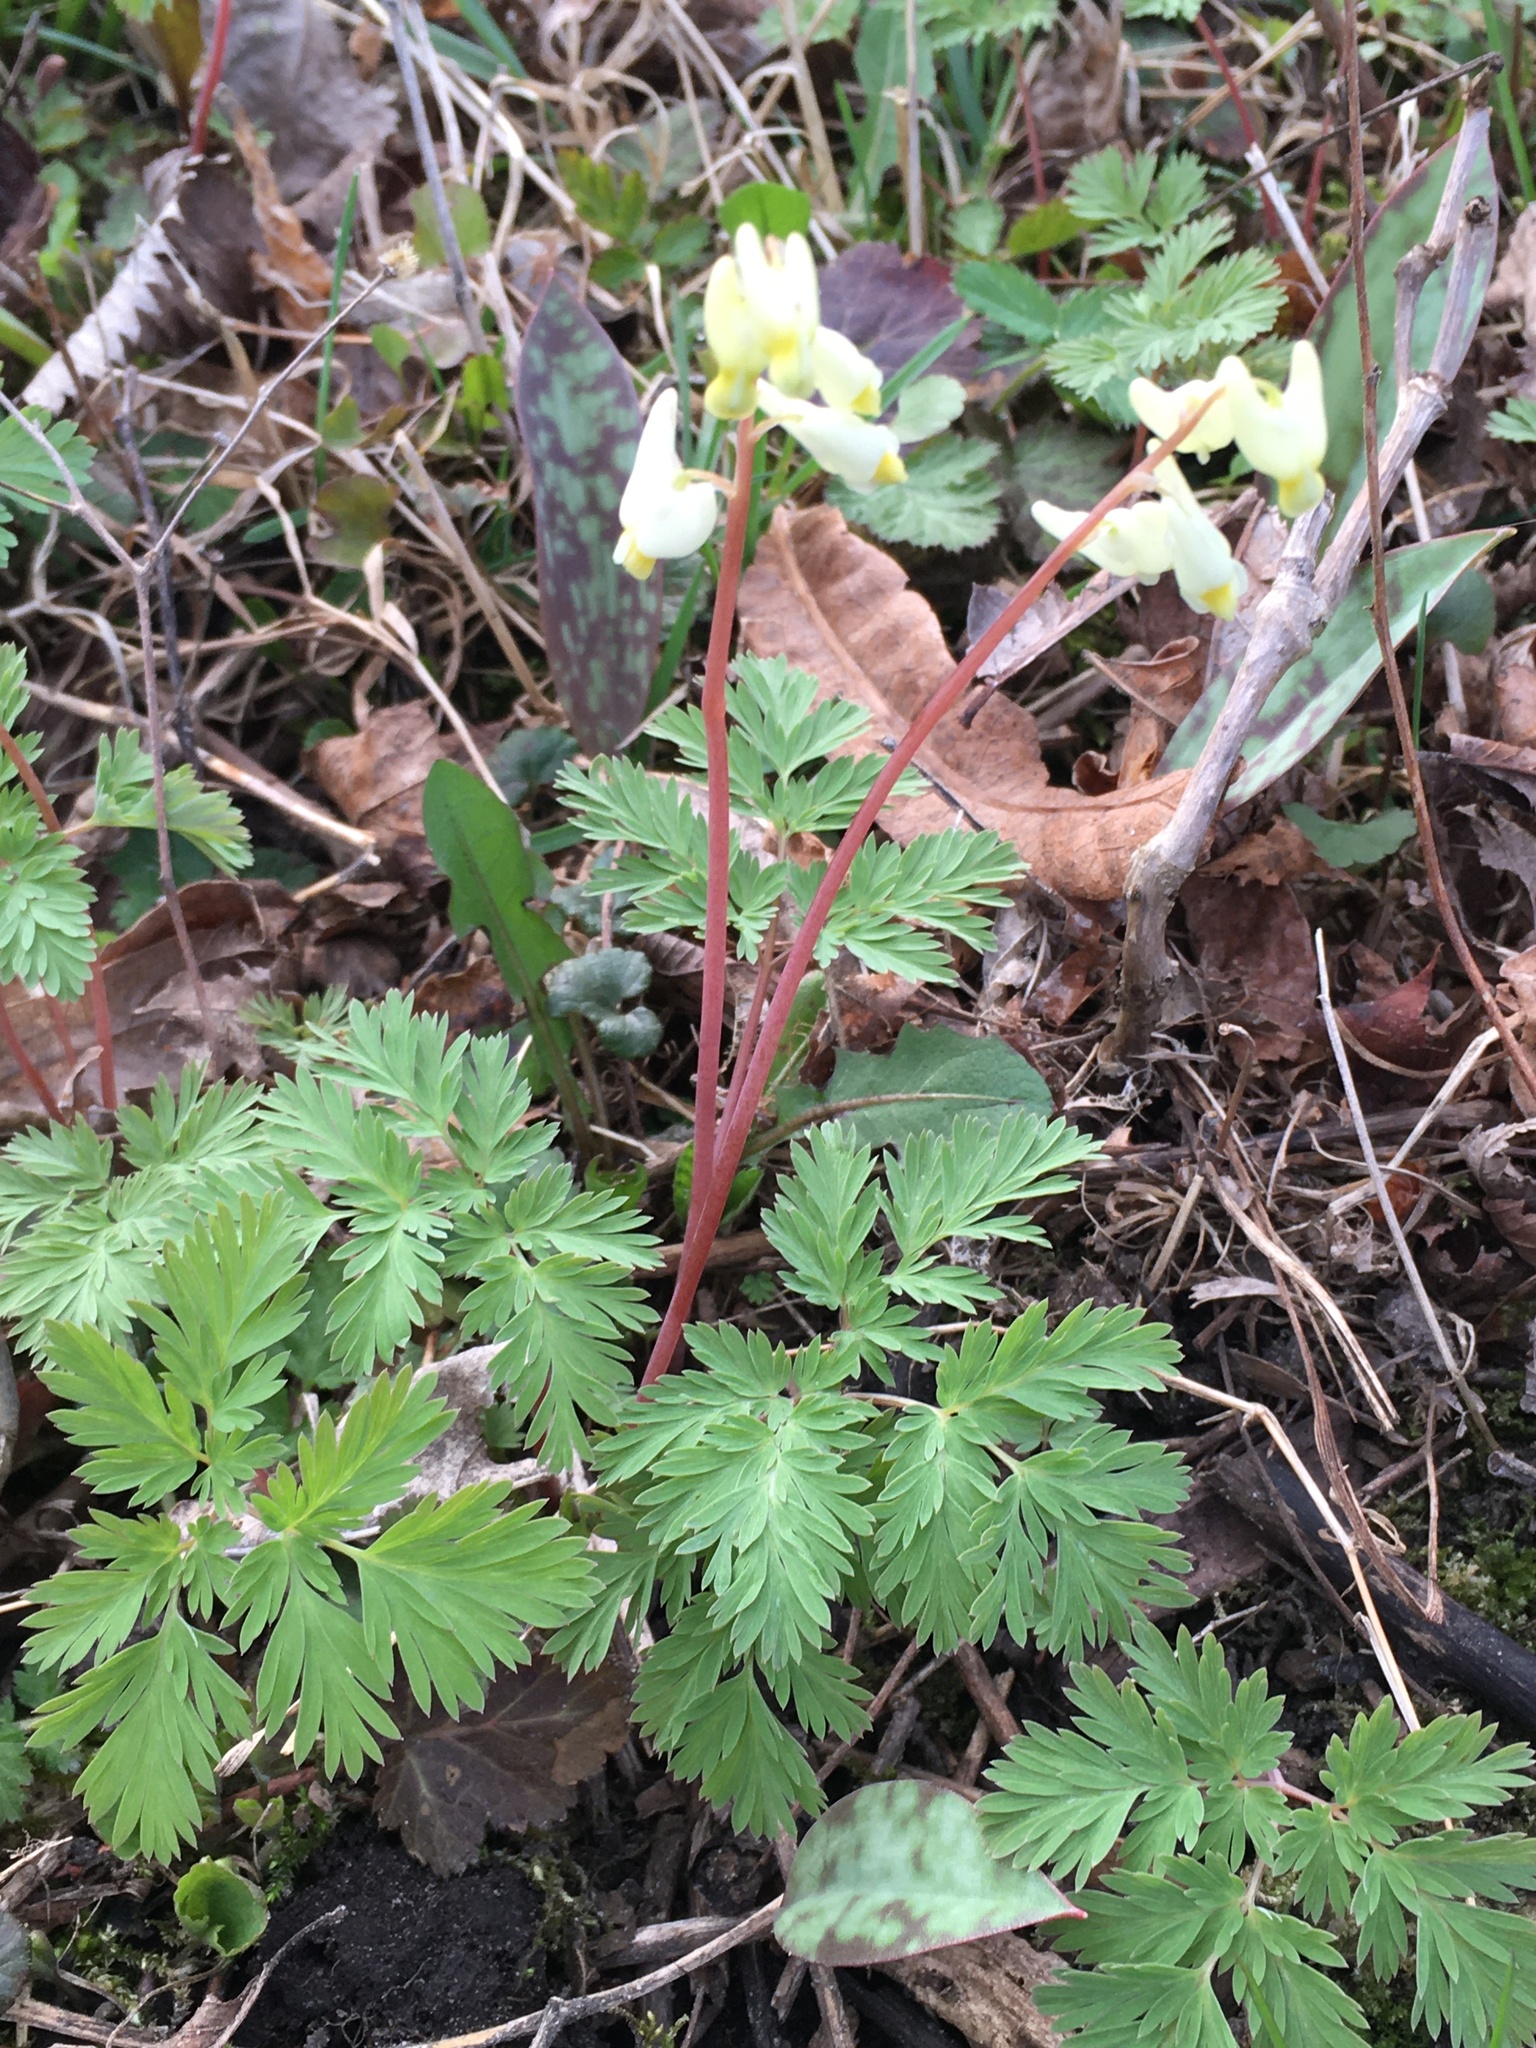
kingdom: Plantae
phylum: Tracheophyta
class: Magnoliopsida
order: Ranunculales
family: Papaveraceae
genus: Dicentra
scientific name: Dicentra cucullaria
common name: Dutchman's breeches
